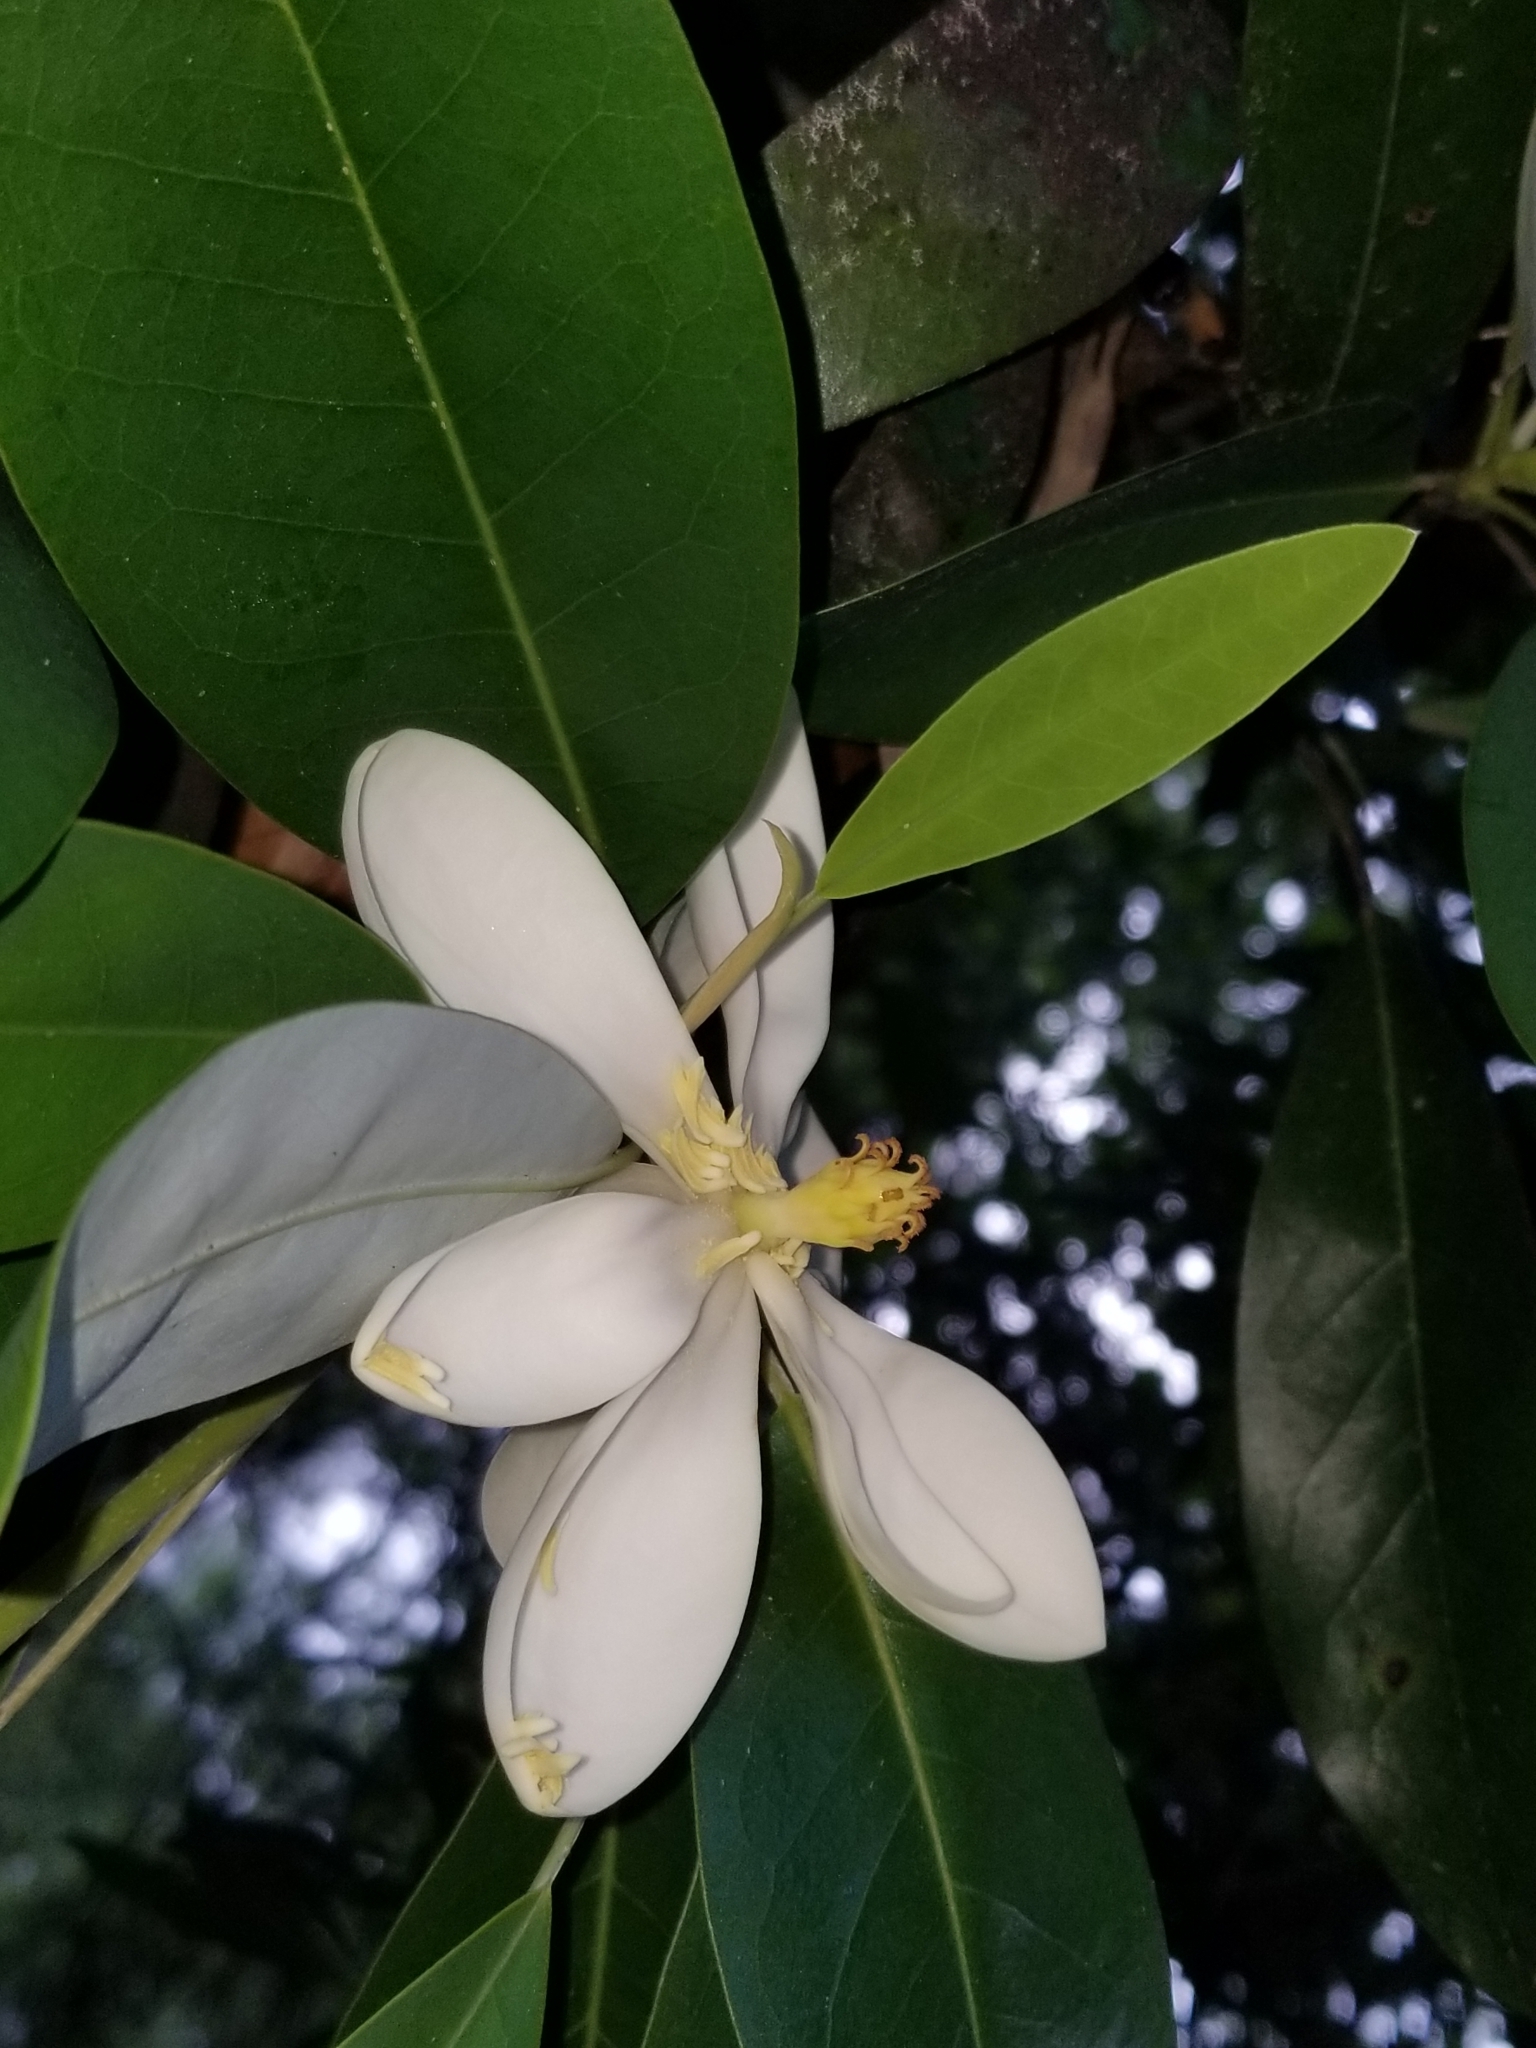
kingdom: Plantae
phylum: Tracheophyta
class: Magnoliopsida
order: Magnoliales
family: Magnoliaceae
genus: Magnolia
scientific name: Magnolia virginiana
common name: Swamp bay
